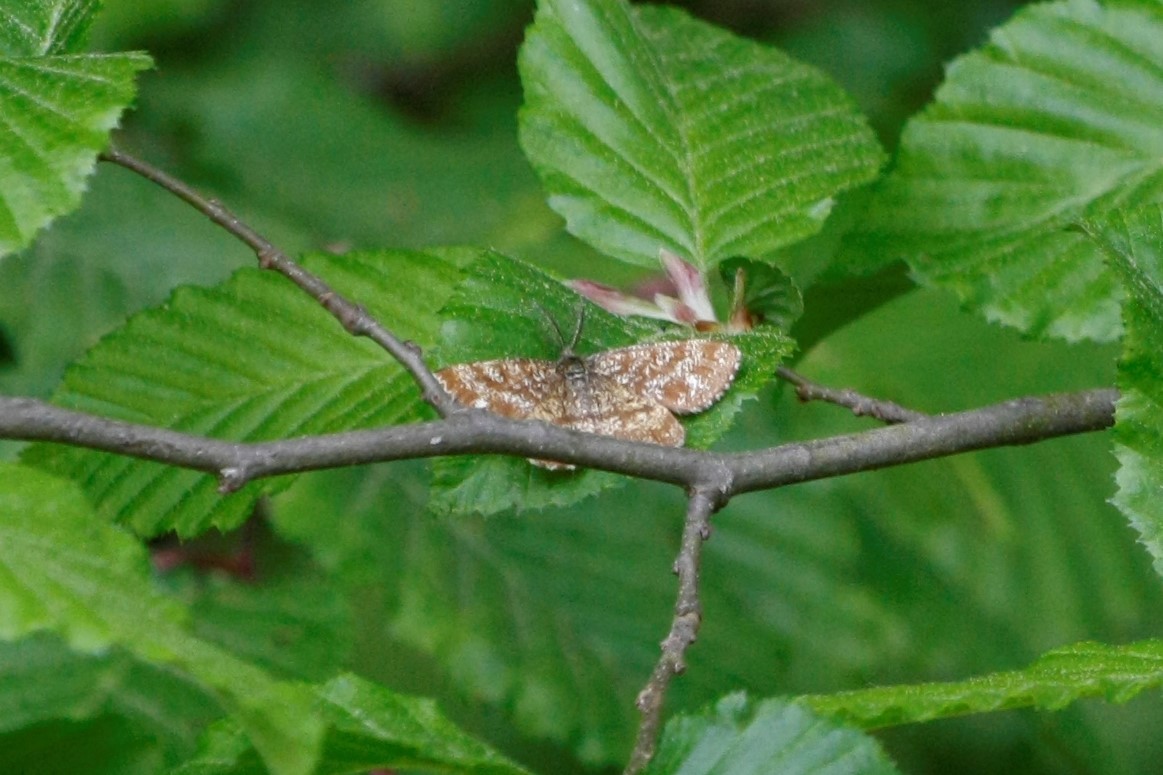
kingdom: Animalia
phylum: Arthropoda
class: Insecta
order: Lepidoptera
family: Geometridae
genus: Ematurga
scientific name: Ematurga atomaria
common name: Common heath
